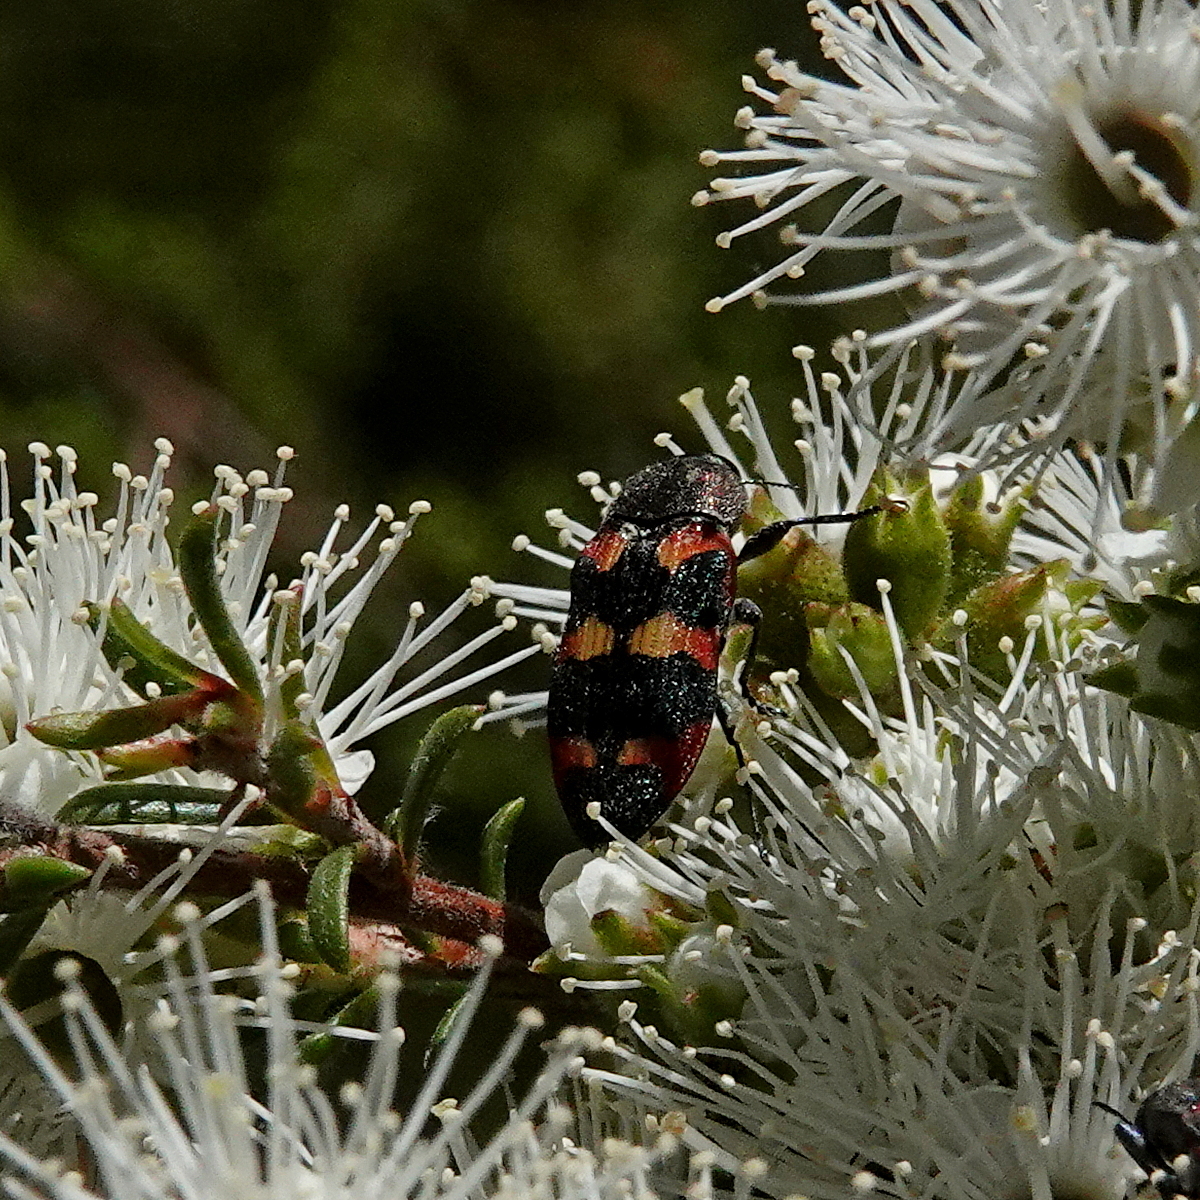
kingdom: Animalia
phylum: Arthropoda
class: Insecta
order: Coleoptera
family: Buprestidae
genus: Castiarina
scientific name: Castiarina sexplagiata
